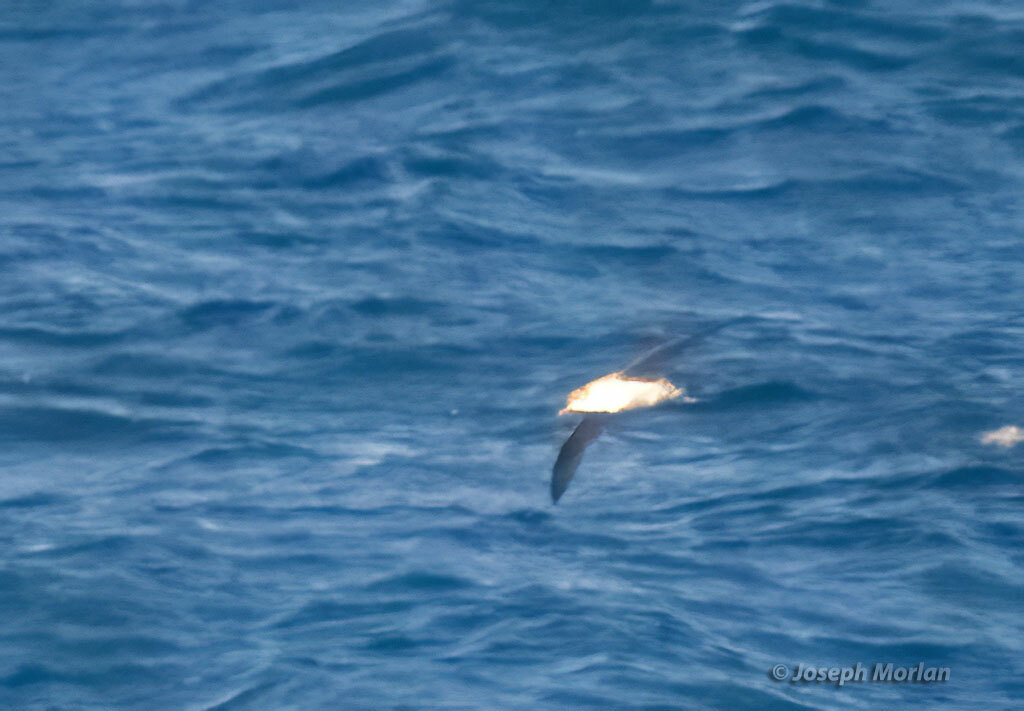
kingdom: Animalia
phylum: Chordata
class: Aves
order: Procellariiformes
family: Procellariidae
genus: Puffinus
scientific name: Puffinus gravis
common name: Great shearwater
